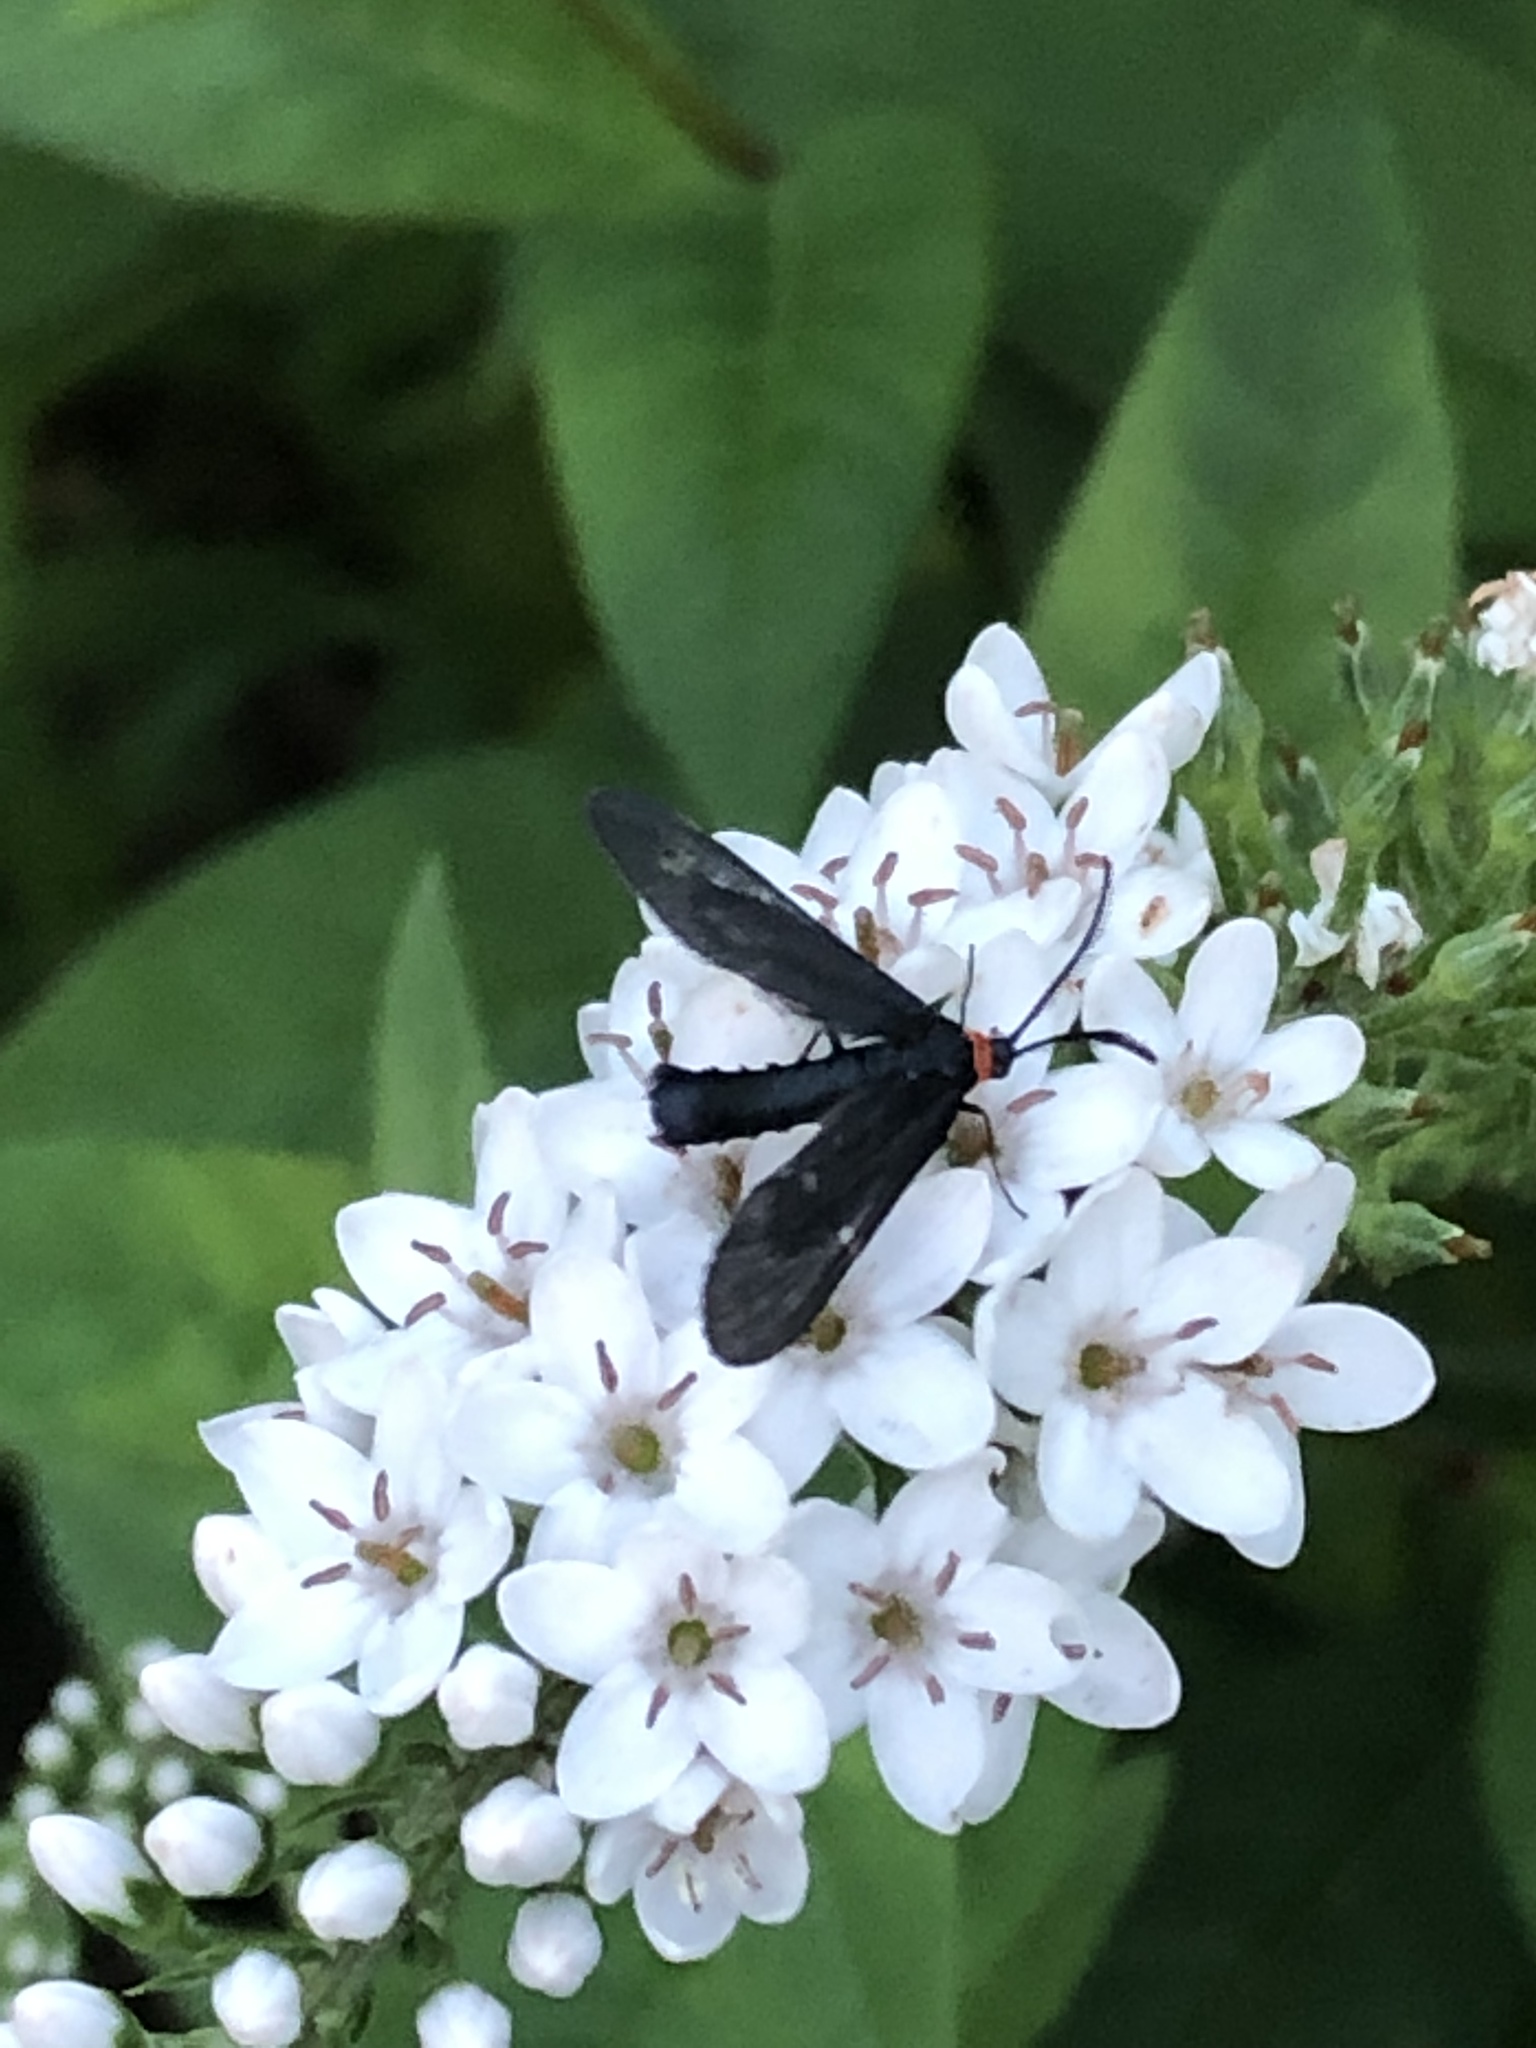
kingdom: Animalia
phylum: Arthropoda
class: Insecta
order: Lepidoptera
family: Zygaenidae
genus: Harrisina
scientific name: Harrisina americana
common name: Grapeleaf skeletonizer moth
